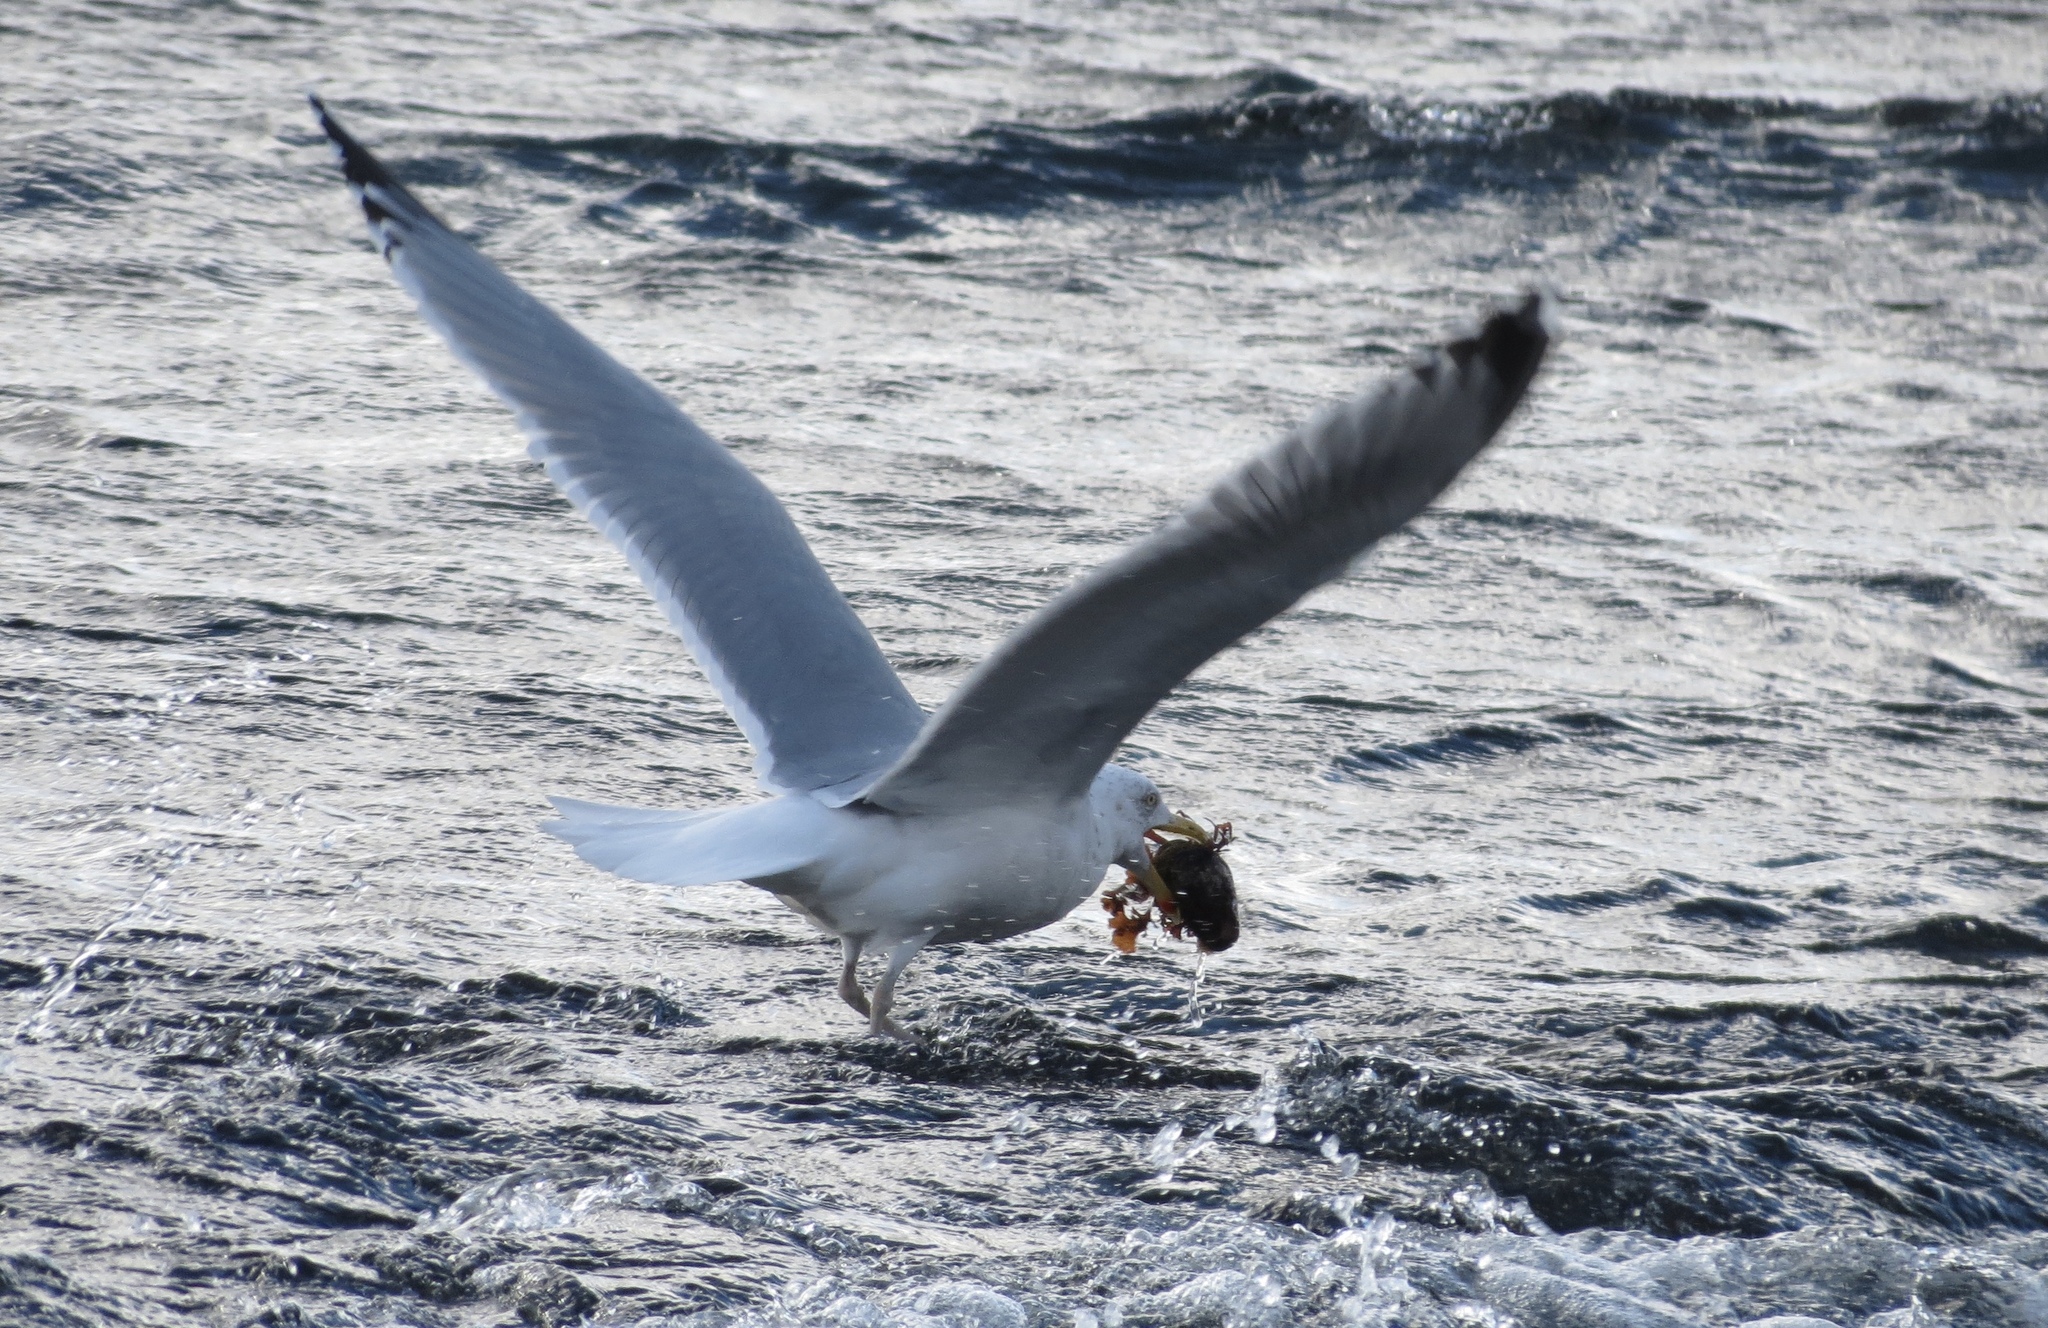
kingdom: Animalia
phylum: Chordata
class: Aves
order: Charadriiformes
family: Laridae
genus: Larus
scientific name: Larus argentatus
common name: Herring gull
